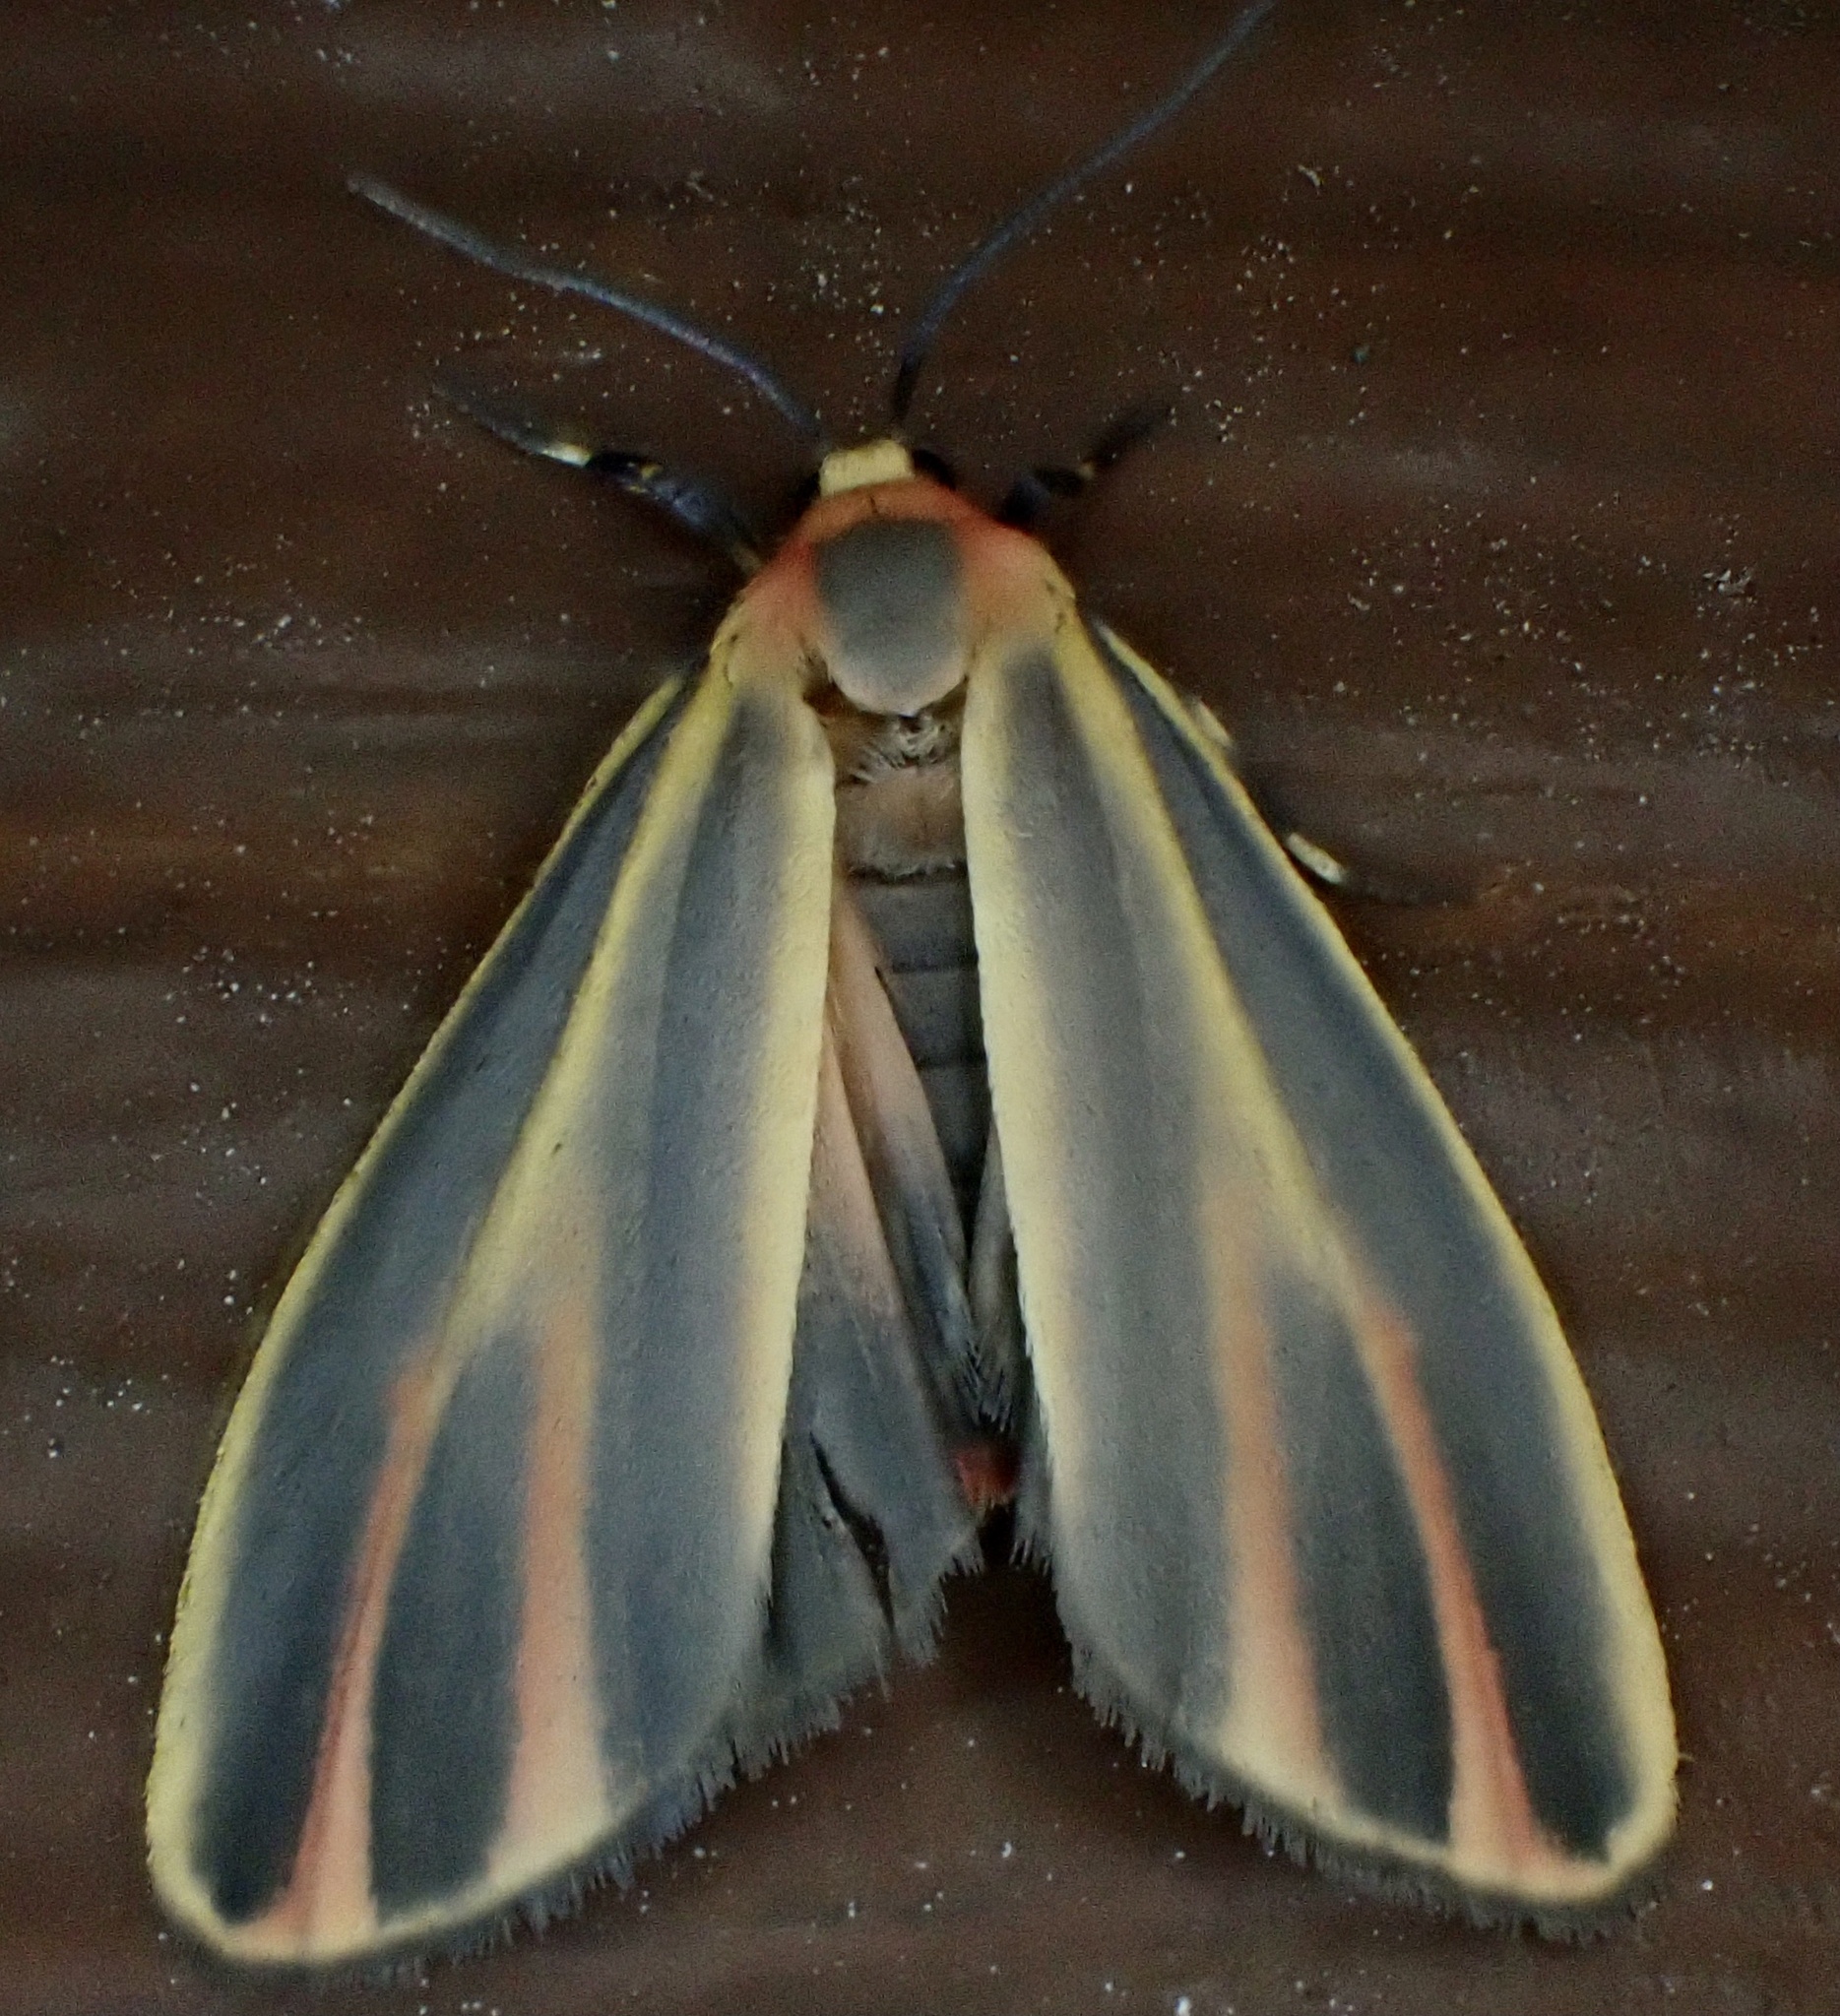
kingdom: Animalia
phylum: Arthropoda
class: Insecta
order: Lepidoptera
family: Erebidae
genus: Hypoprepia
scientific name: Hypoprepia fucosa
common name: Painted lichen moth
